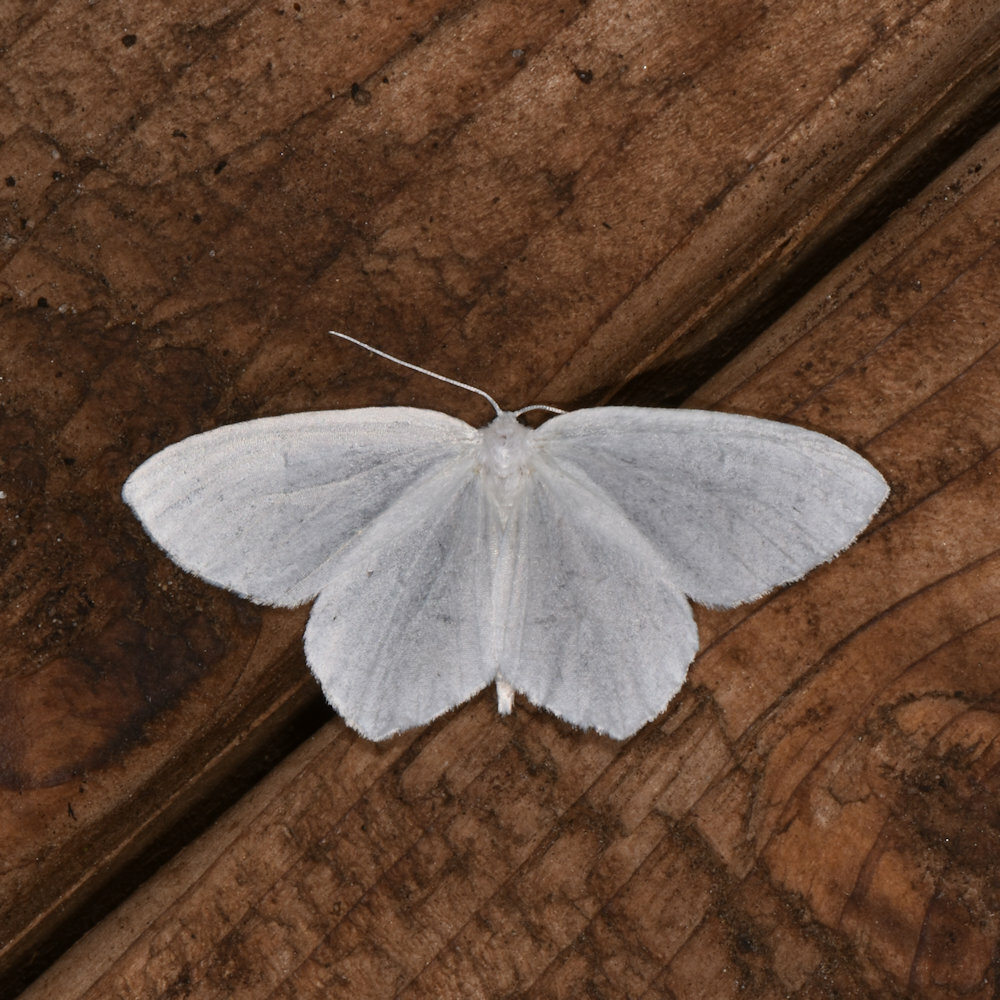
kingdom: Animalia
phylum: Arthropoda
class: Insecta
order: Lepidoptera
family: Geometridae
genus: Eugonobapta
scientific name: Eugonobapta nivosaria
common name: Snowy geometer
